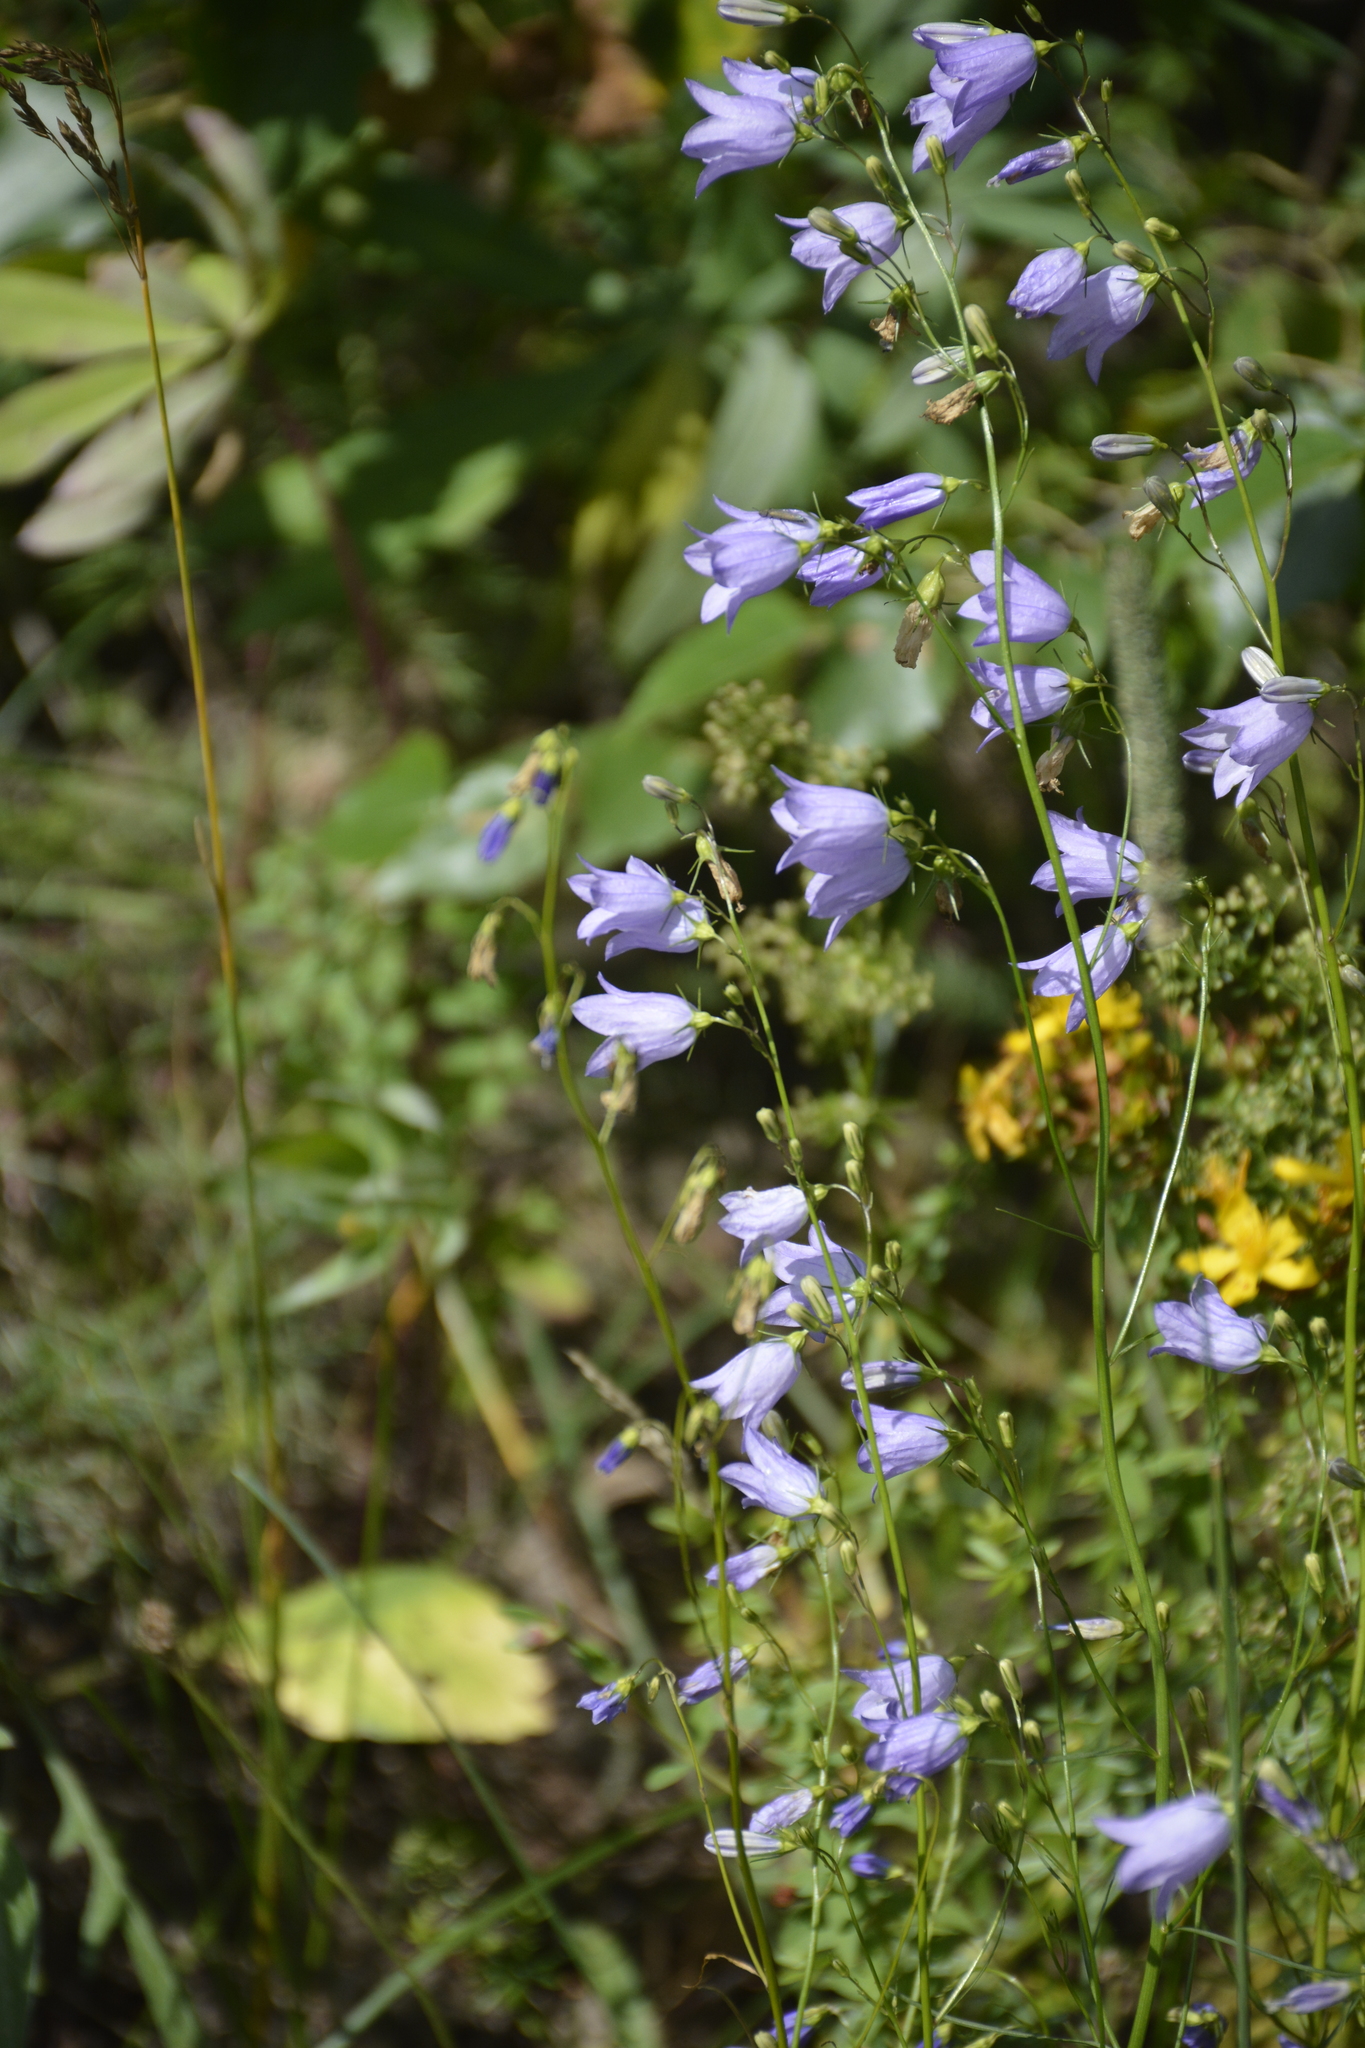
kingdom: Plantae
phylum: Tracheophyta
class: Magnoliopsida
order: Asterales
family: Campanulaceae
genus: Campanula
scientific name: Campanula rotundifolia
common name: Harebell
